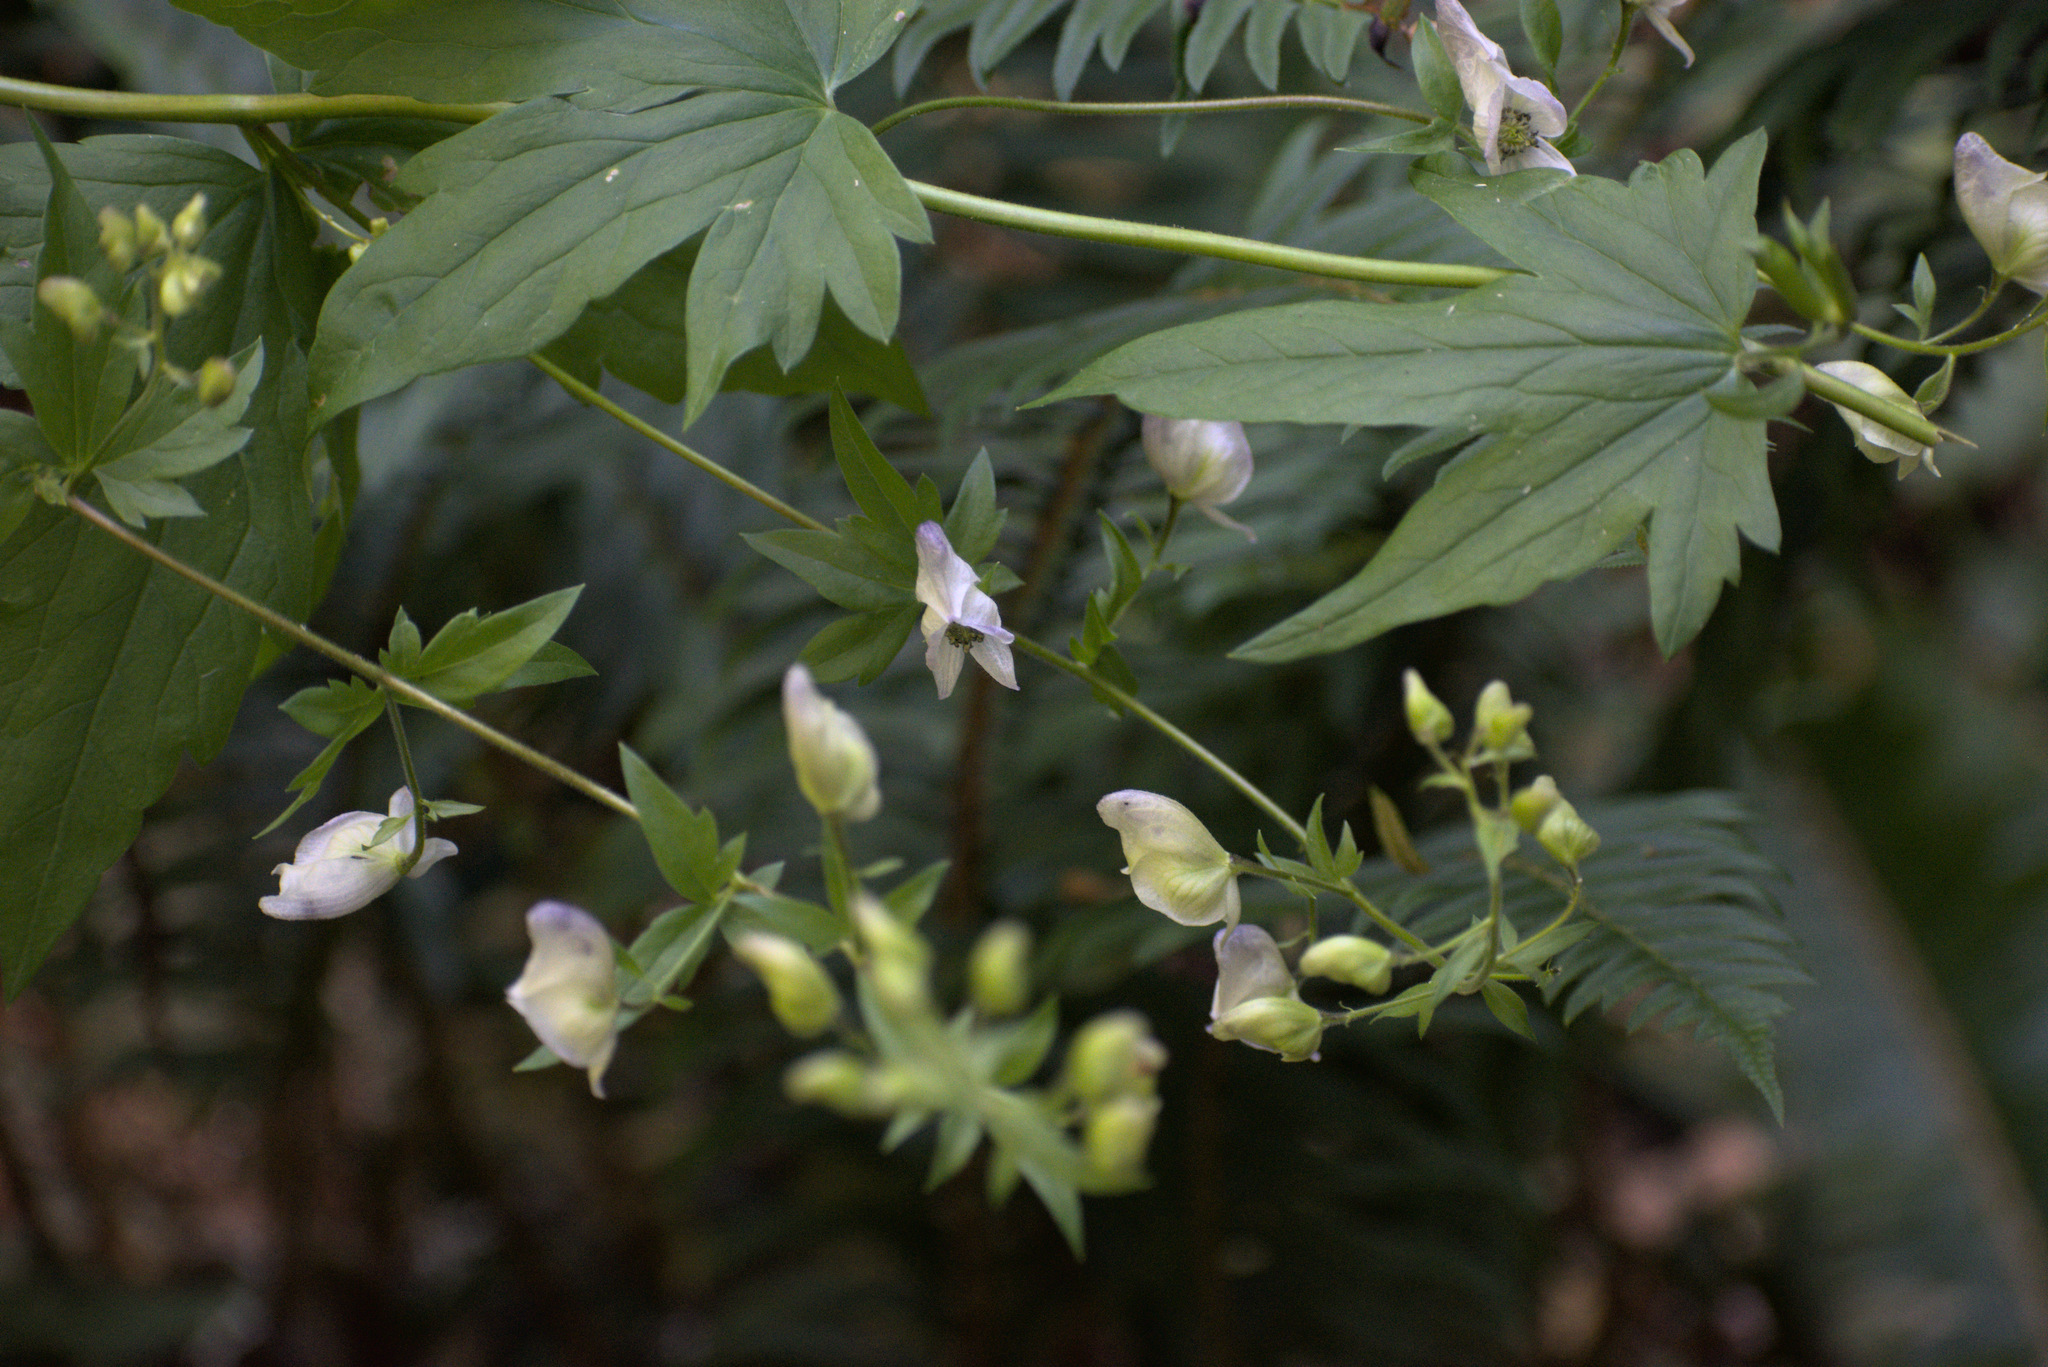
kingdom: Plantae
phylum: Tracheophyta
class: Magnoliopsida
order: Ranunculales
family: Ranunculaceae
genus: Aconitum
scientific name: Aconitum columbianum
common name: Columbia aconite
